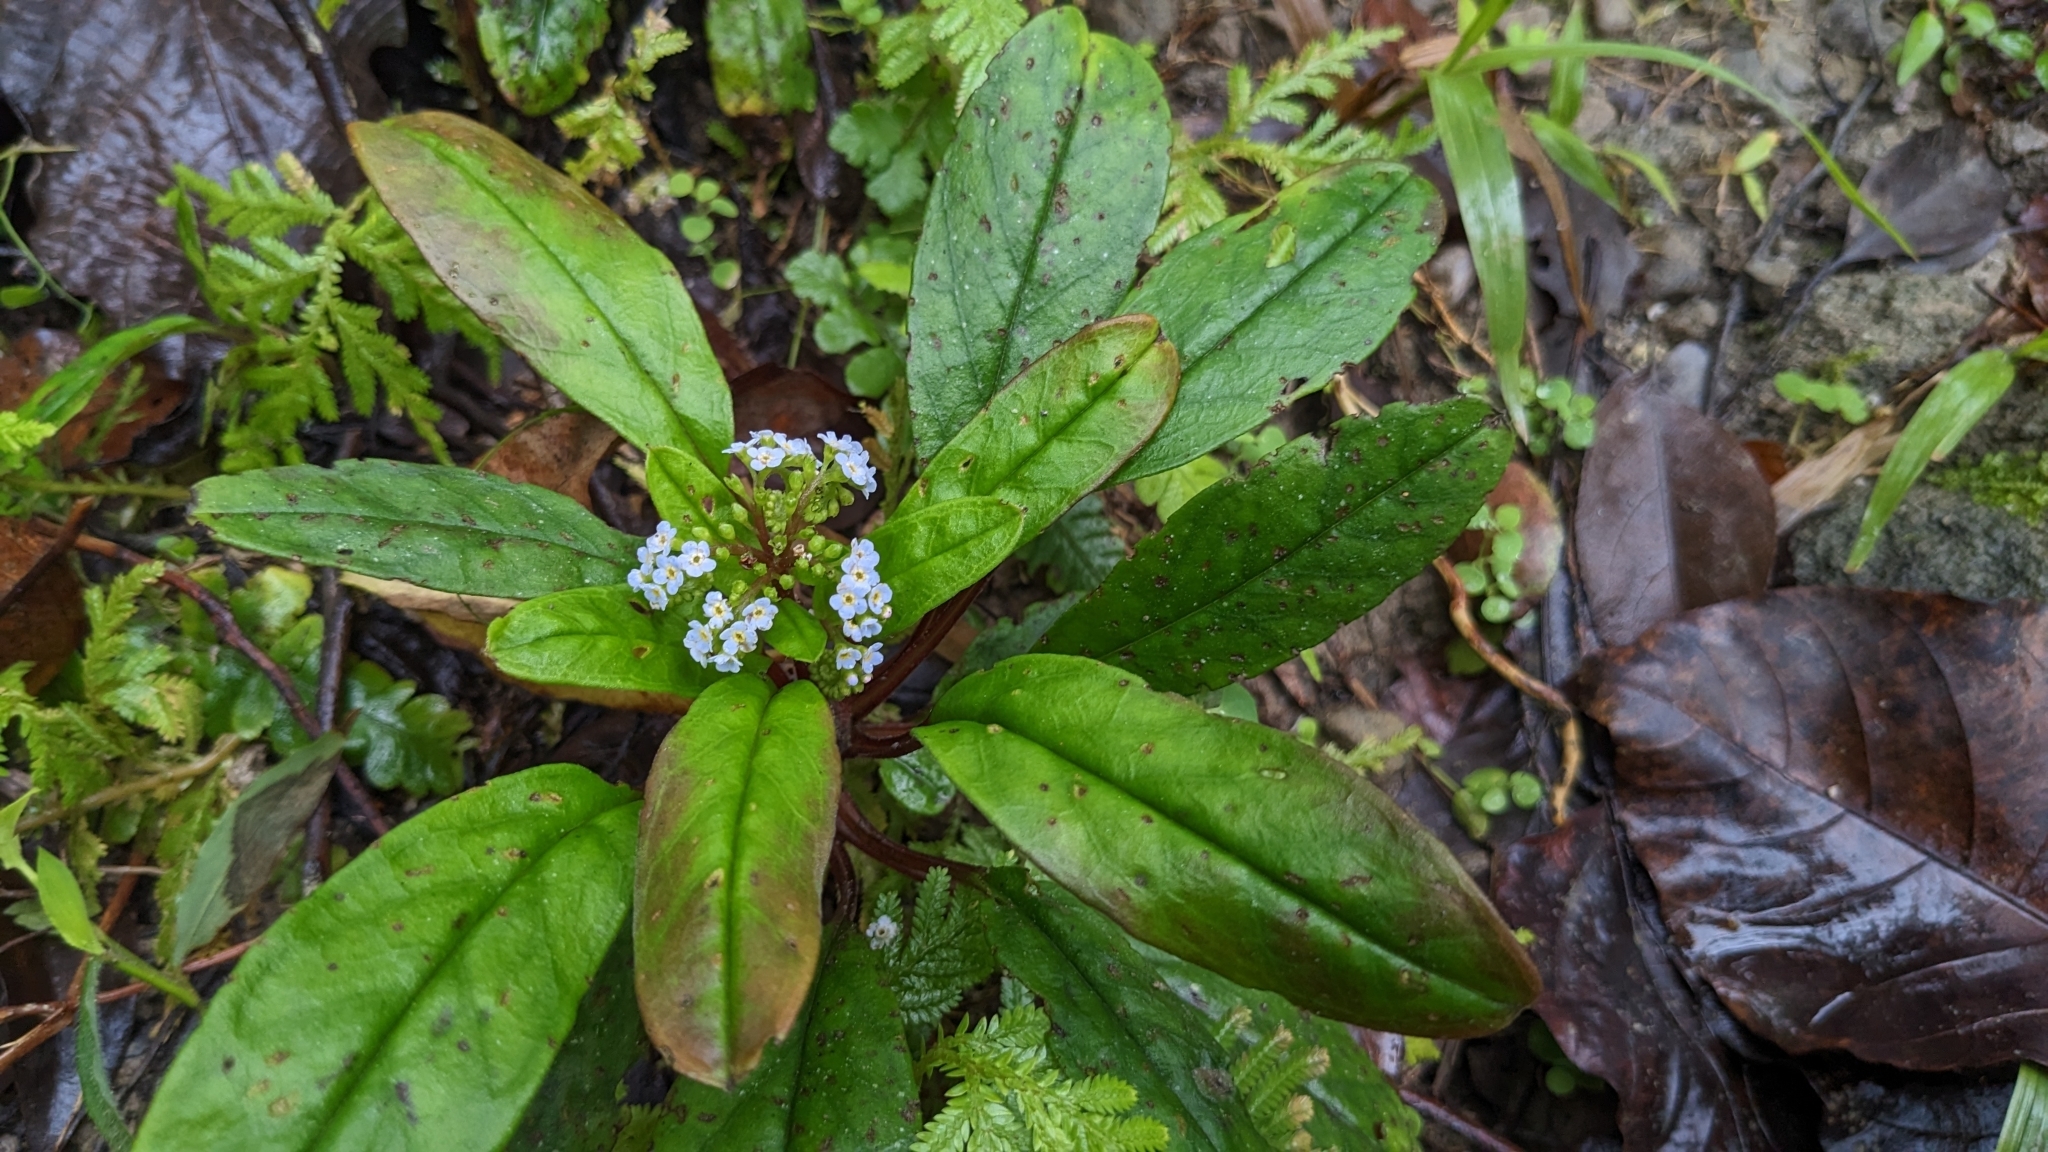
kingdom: Plantae
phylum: Tracheophyta
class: Magnoliopsida
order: Boraginales
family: Boraginaceae
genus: Trigonotis
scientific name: Trigonotis formosana
